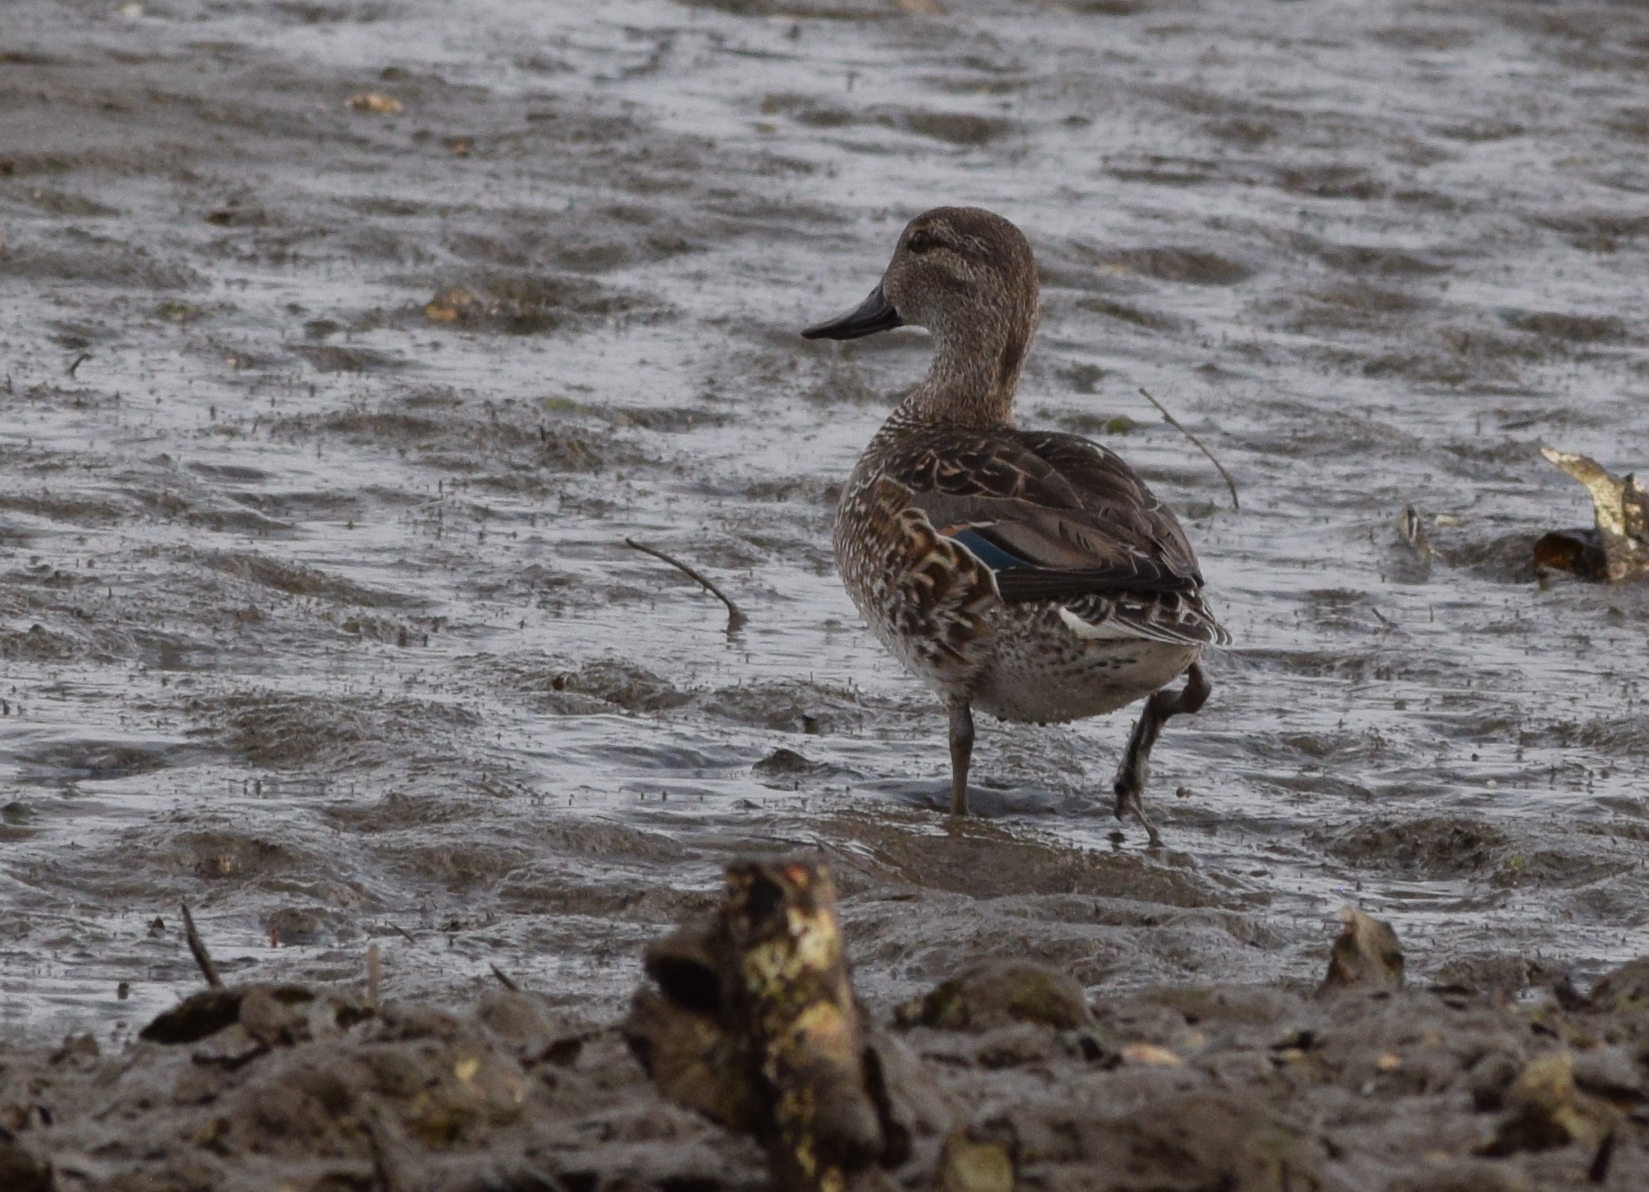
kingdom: Animalia
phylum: Chordata
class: Aves
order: Anseriformes
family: Anatidae
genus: Anas
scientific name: Anas crecca
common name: Eurasian teal
